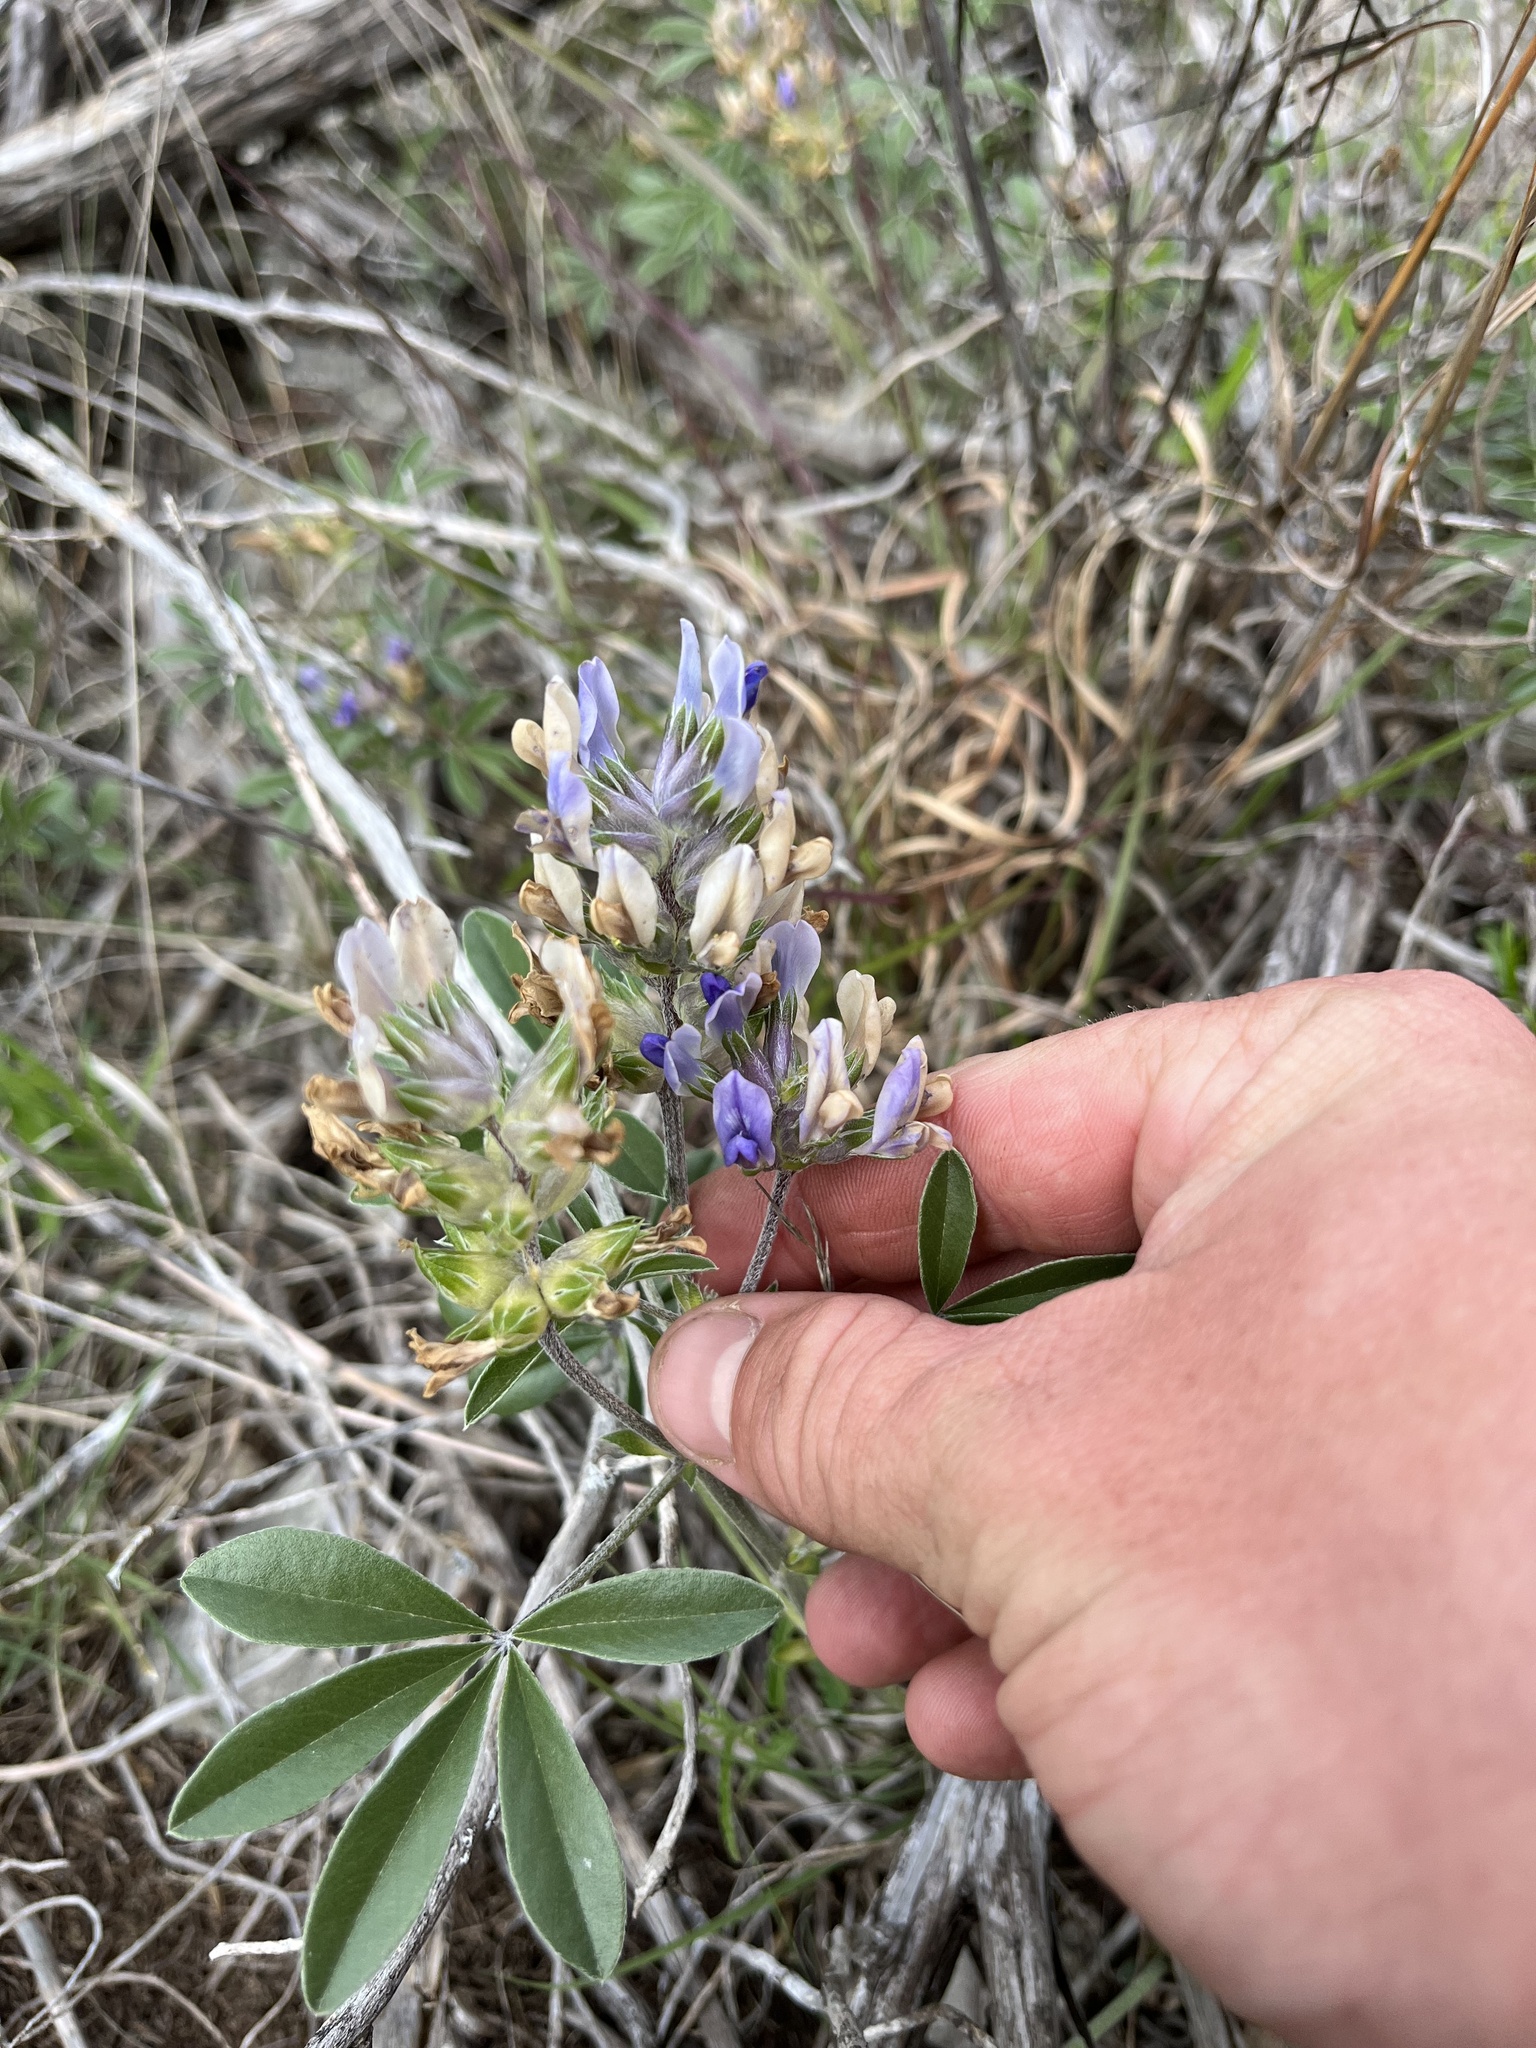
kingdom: Plantae
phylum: Tracheophyta
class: Magnoliopsida
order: Fabales
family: Fabaceae
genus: Pediomelum
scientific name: Pediomelum latestipulatum
